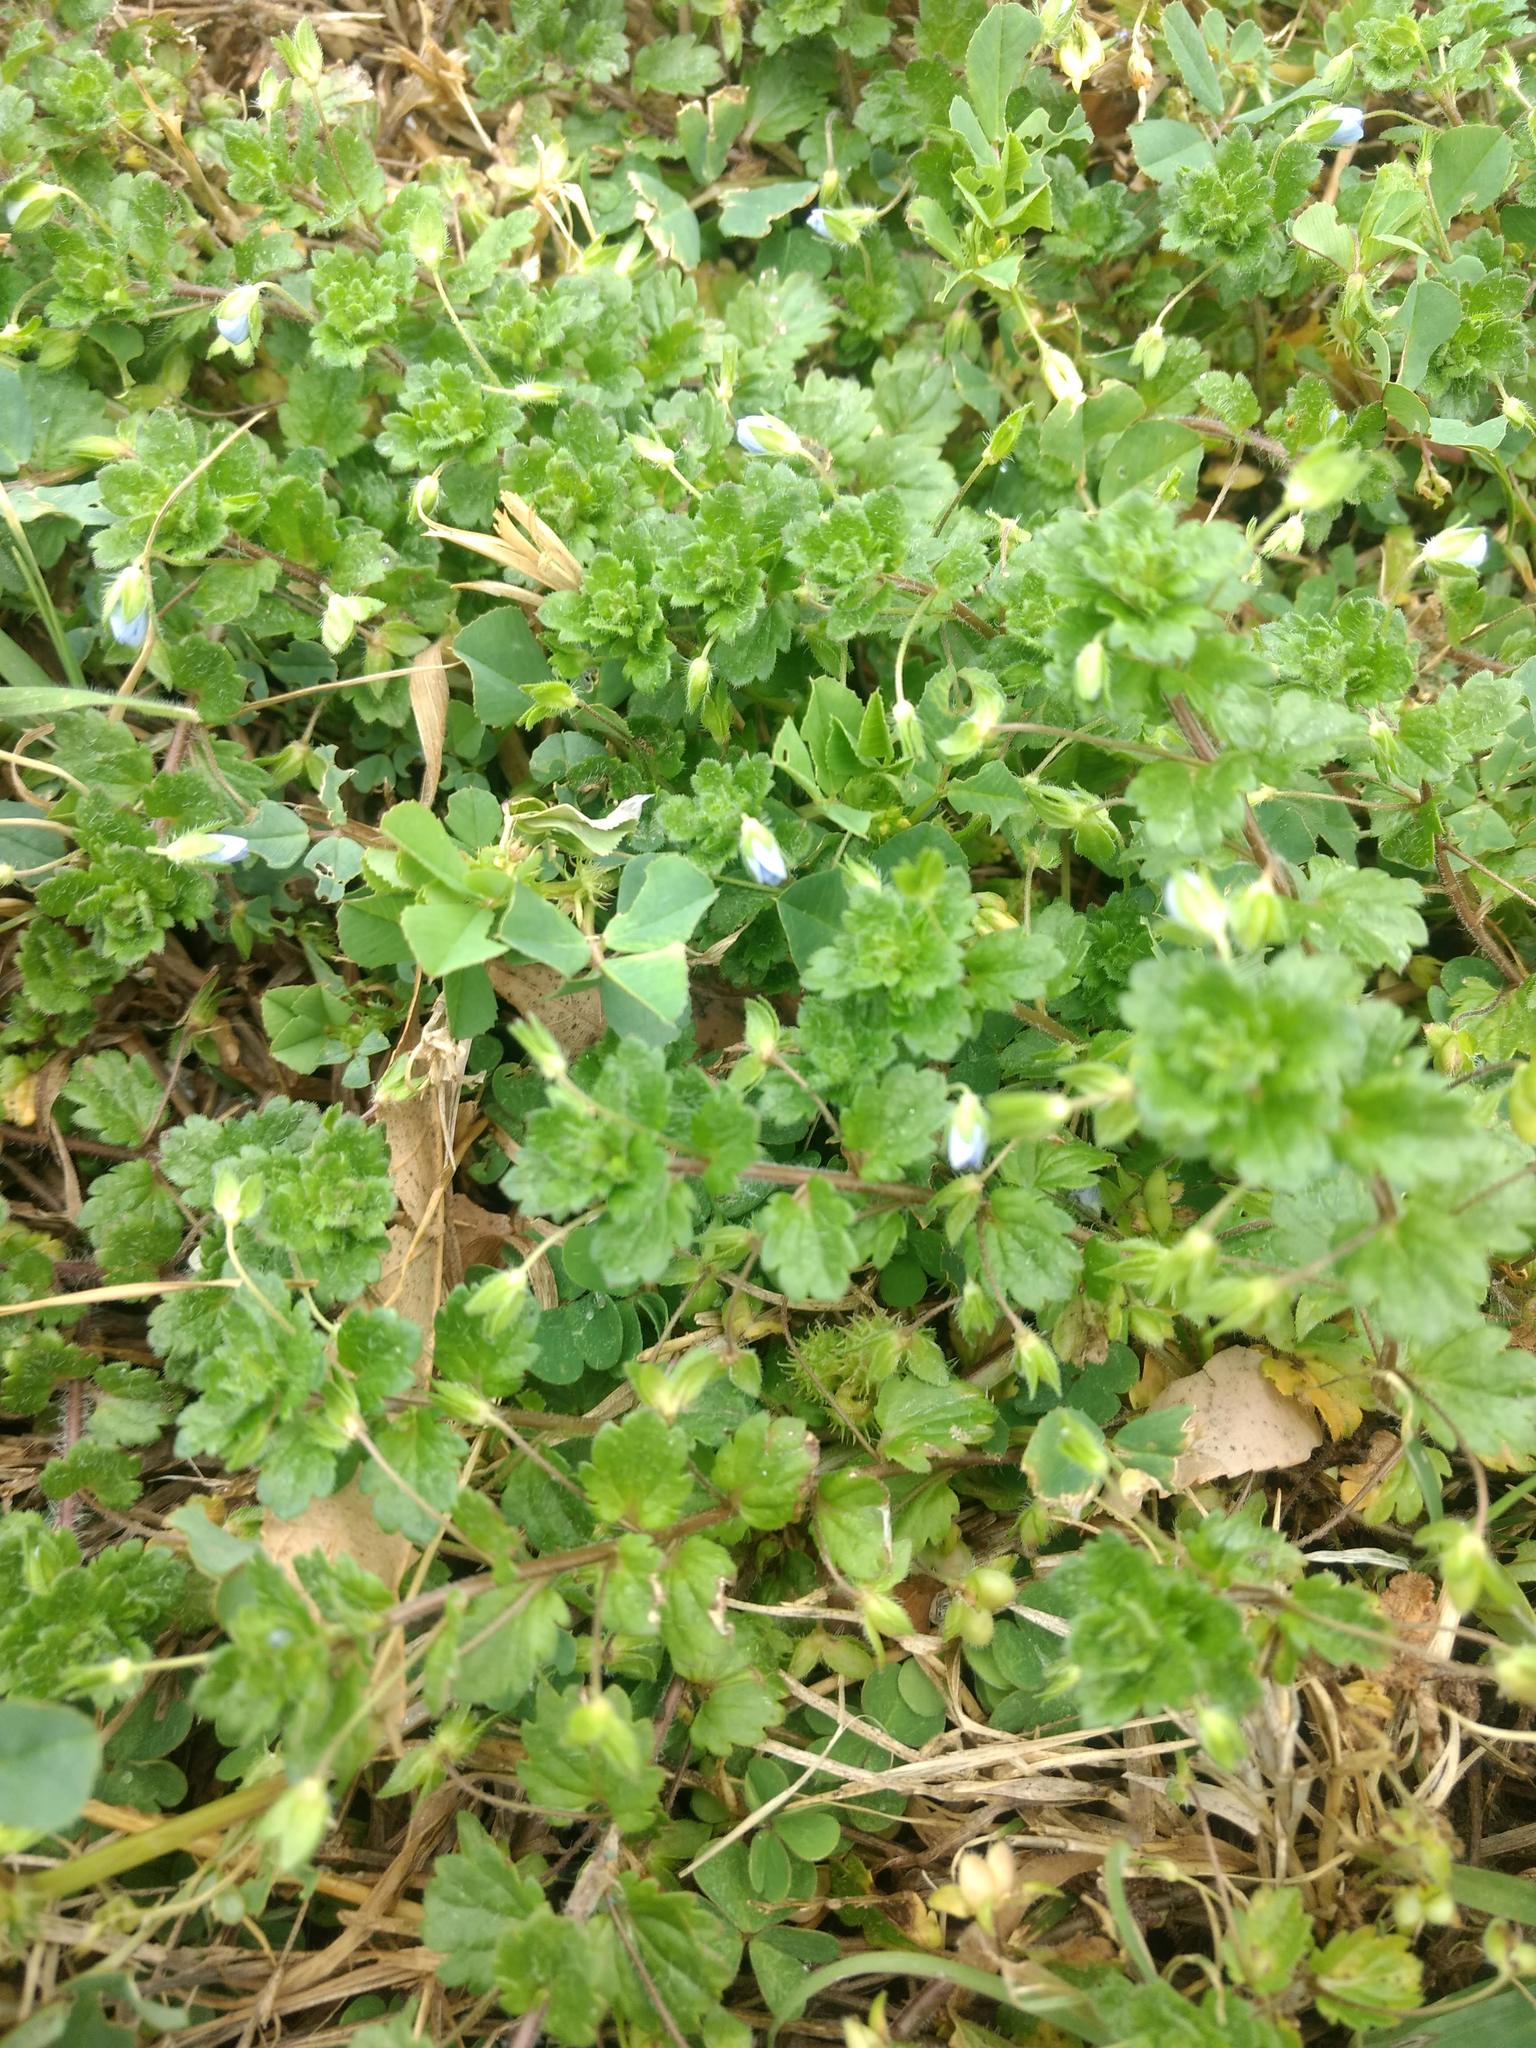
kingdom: Plantae
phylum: Tracheophyta
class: Magnoliopsida
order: Lamiales
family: Plantaginaceae
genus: Veronica
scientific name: Veronica persica
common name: Common field-speedwell
